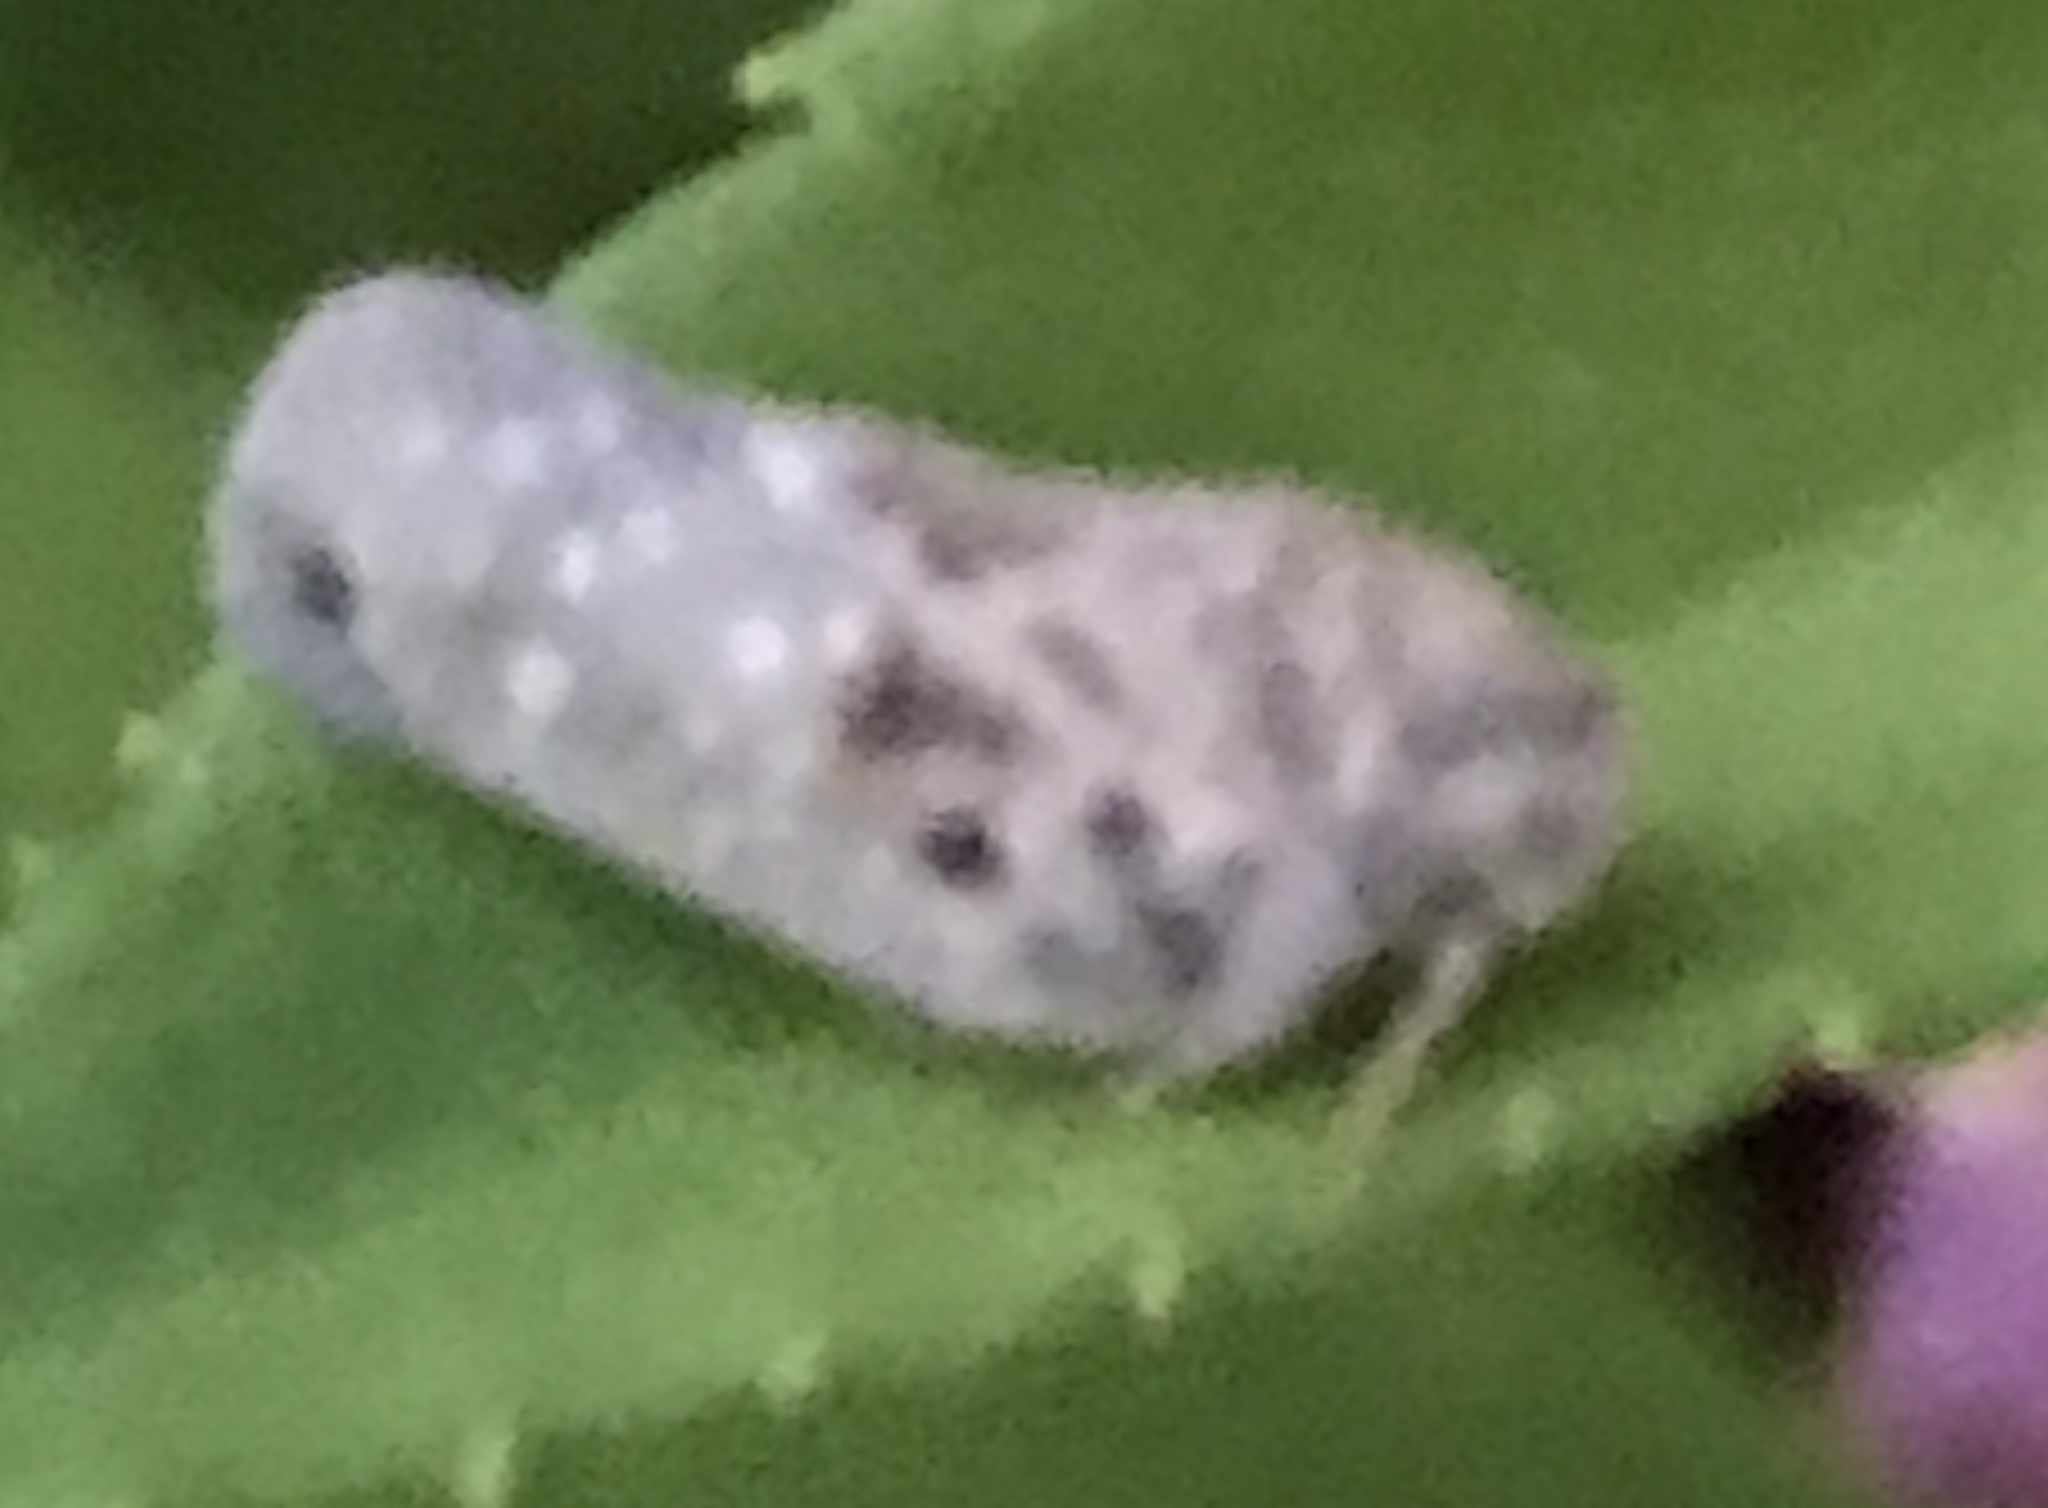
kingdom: Animalia
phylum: Arthropoda
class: Insecta
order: Hemiptera
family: Flatidae
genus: Metcalfa
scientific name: Metcalfa pruinosa
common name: Citrus flatid planthopper
